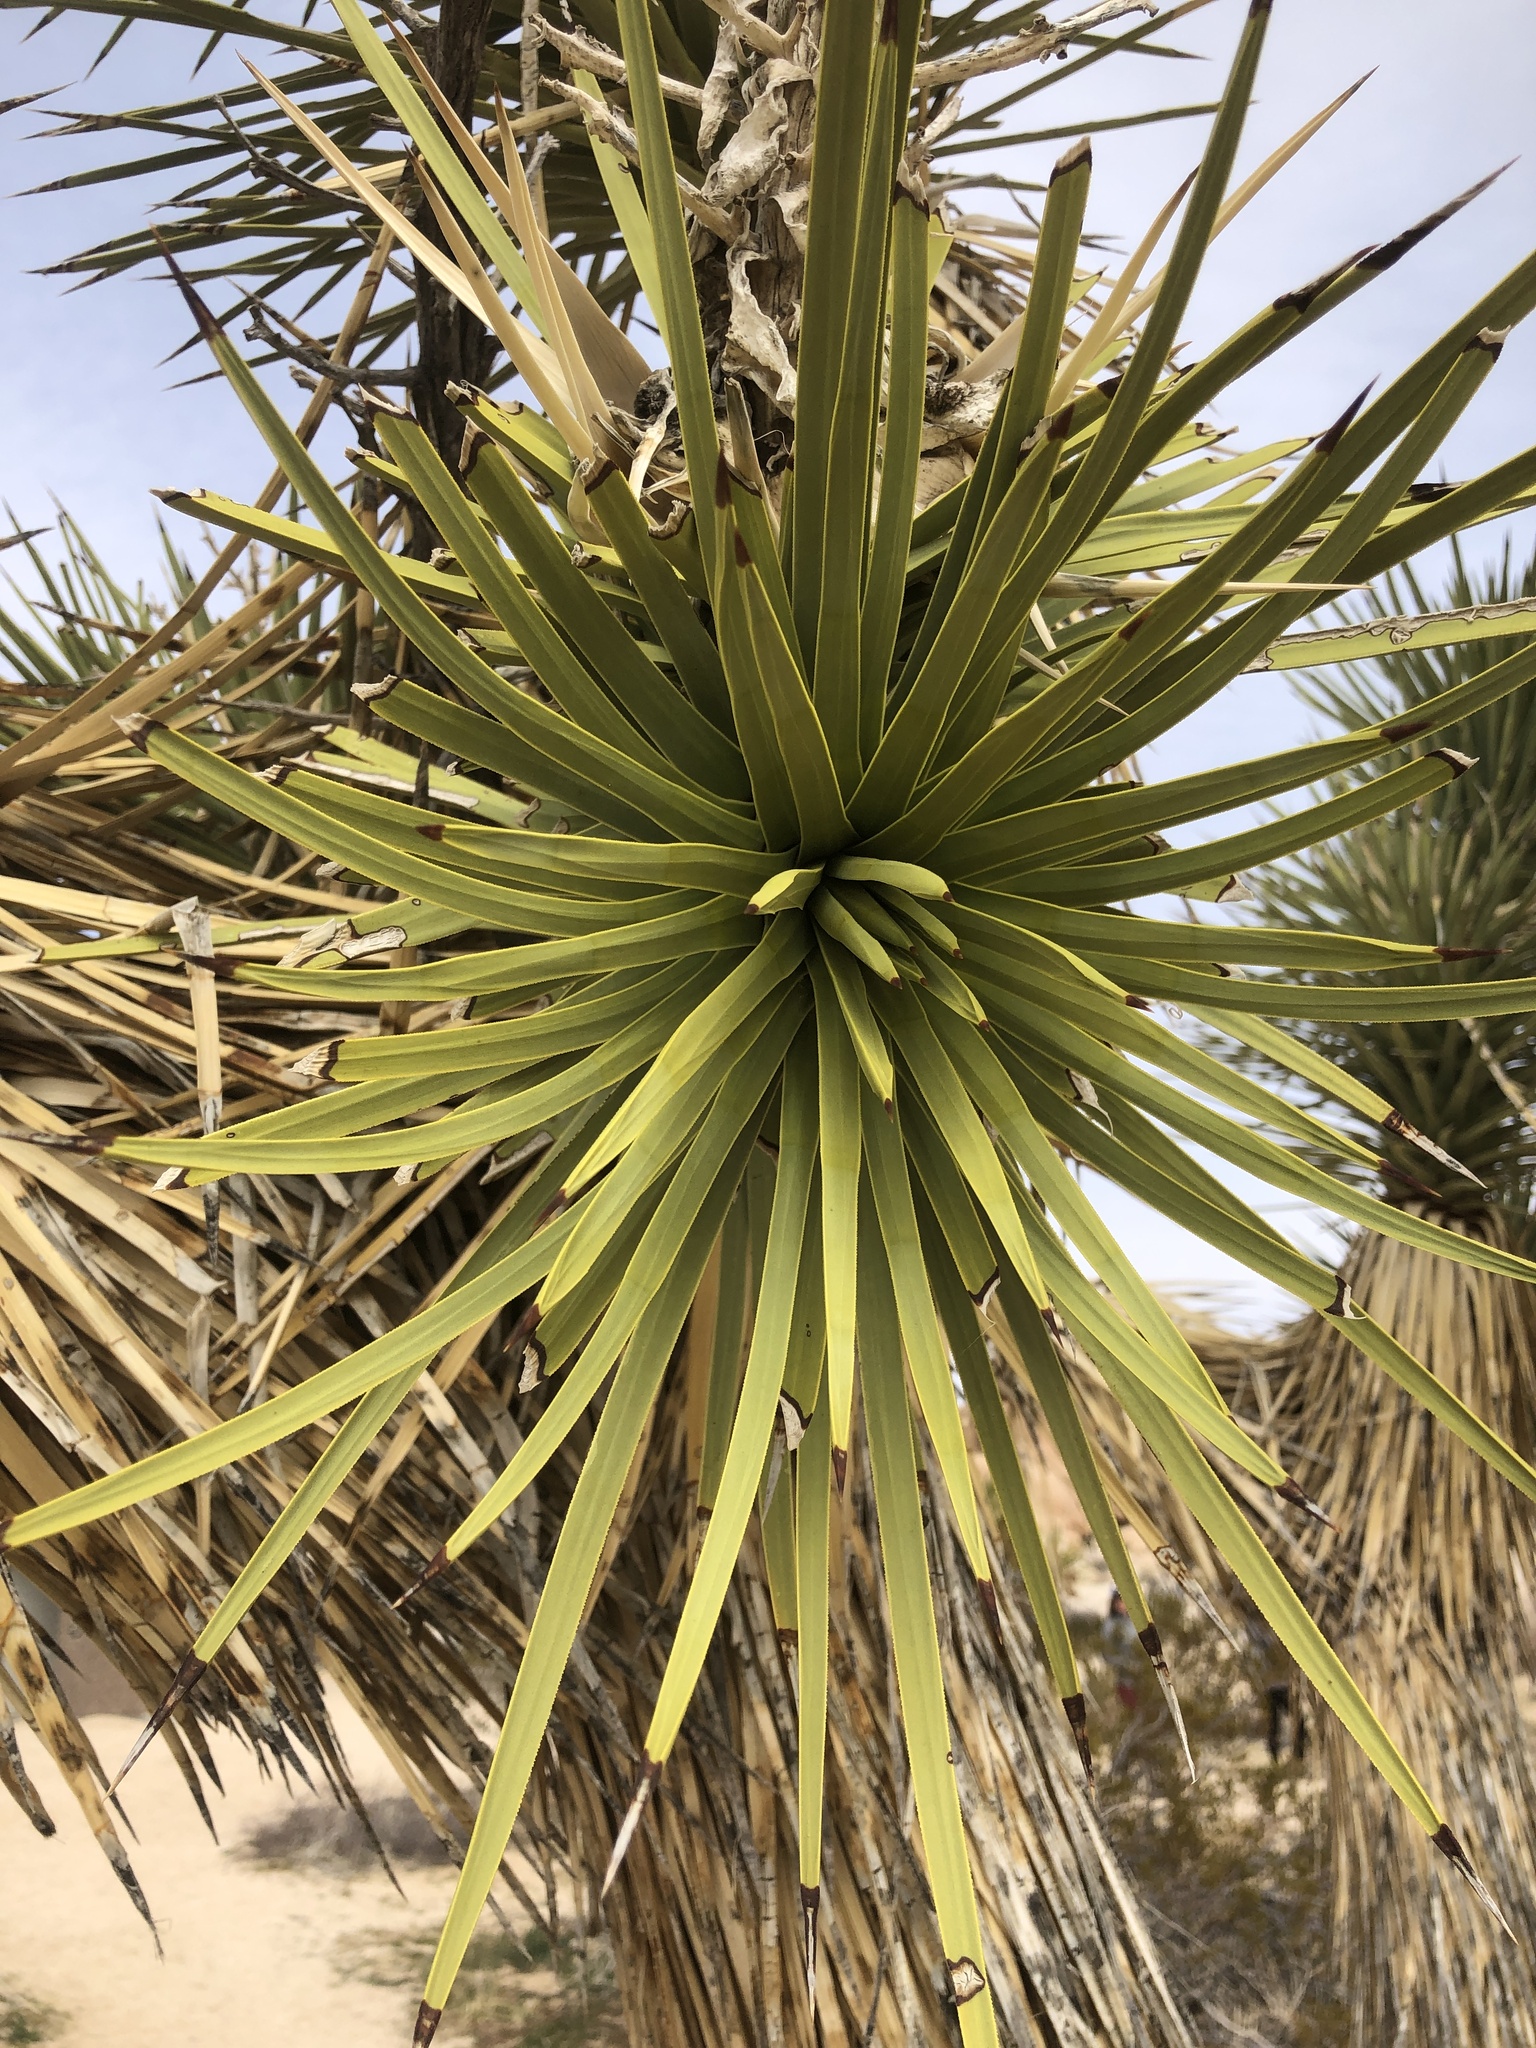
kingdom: Plantae
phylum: Tracheophyta
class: Liliopsida
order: Asparagales
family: Asparagaceae
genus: Yucca
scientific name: Yucca brevifolia
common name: Joshua tree
